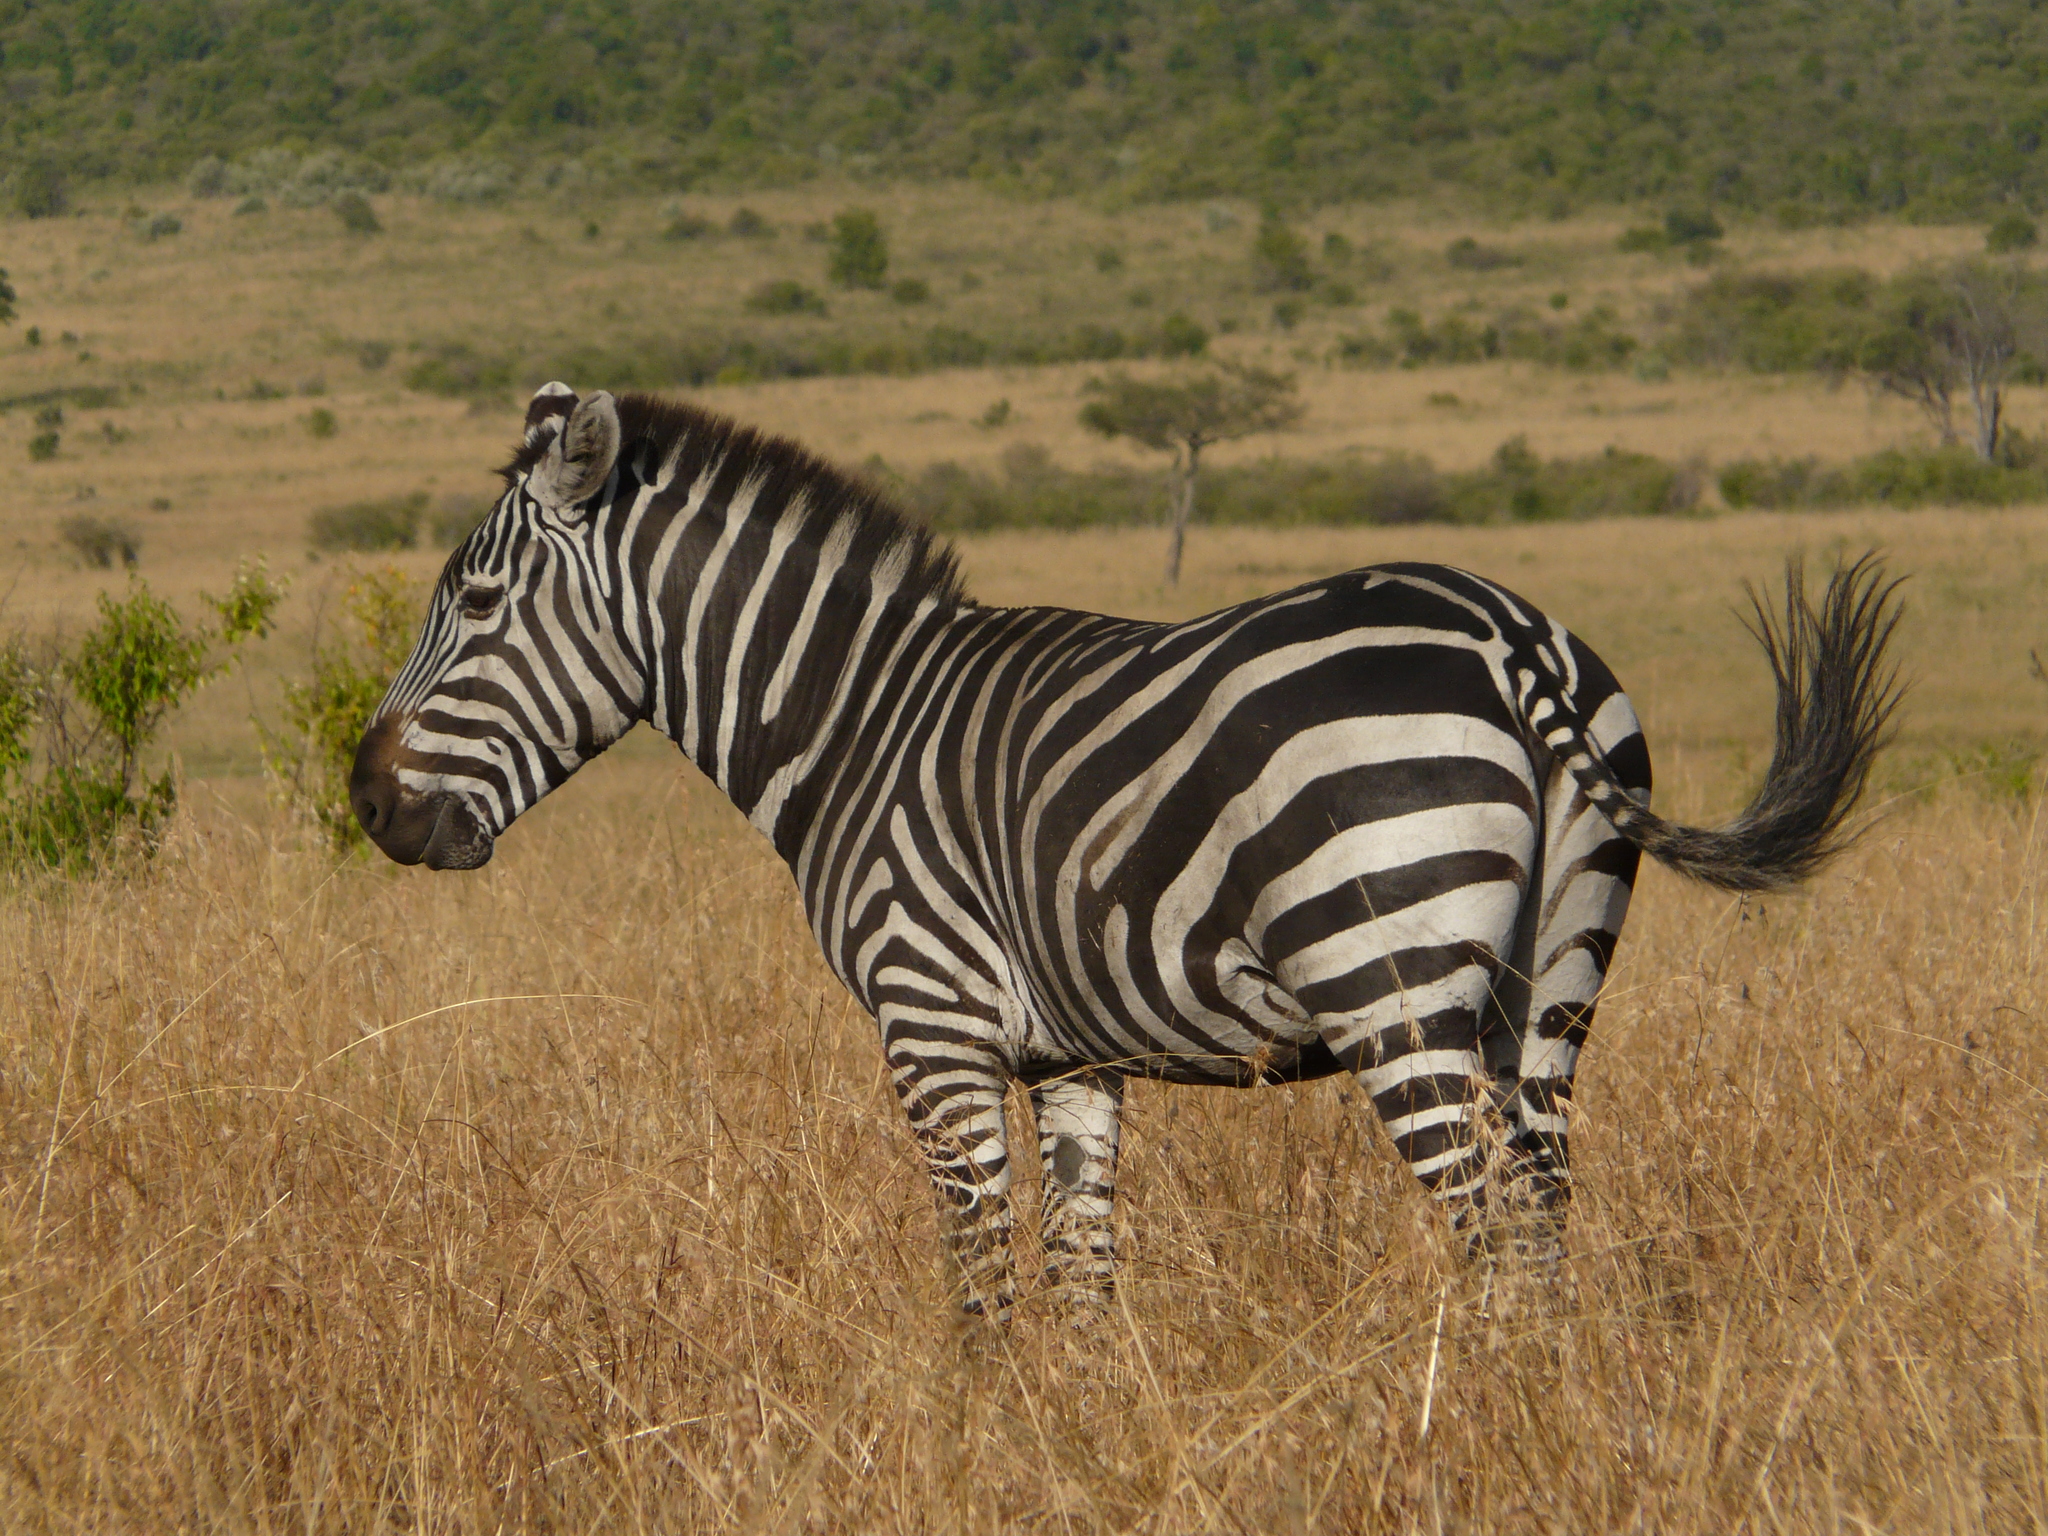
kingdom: Animalia
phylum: Chordata
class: Mammalia
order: Perissodactyla
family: Equidae
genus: Equus
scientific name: Equus quagga
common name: Plains zebra
